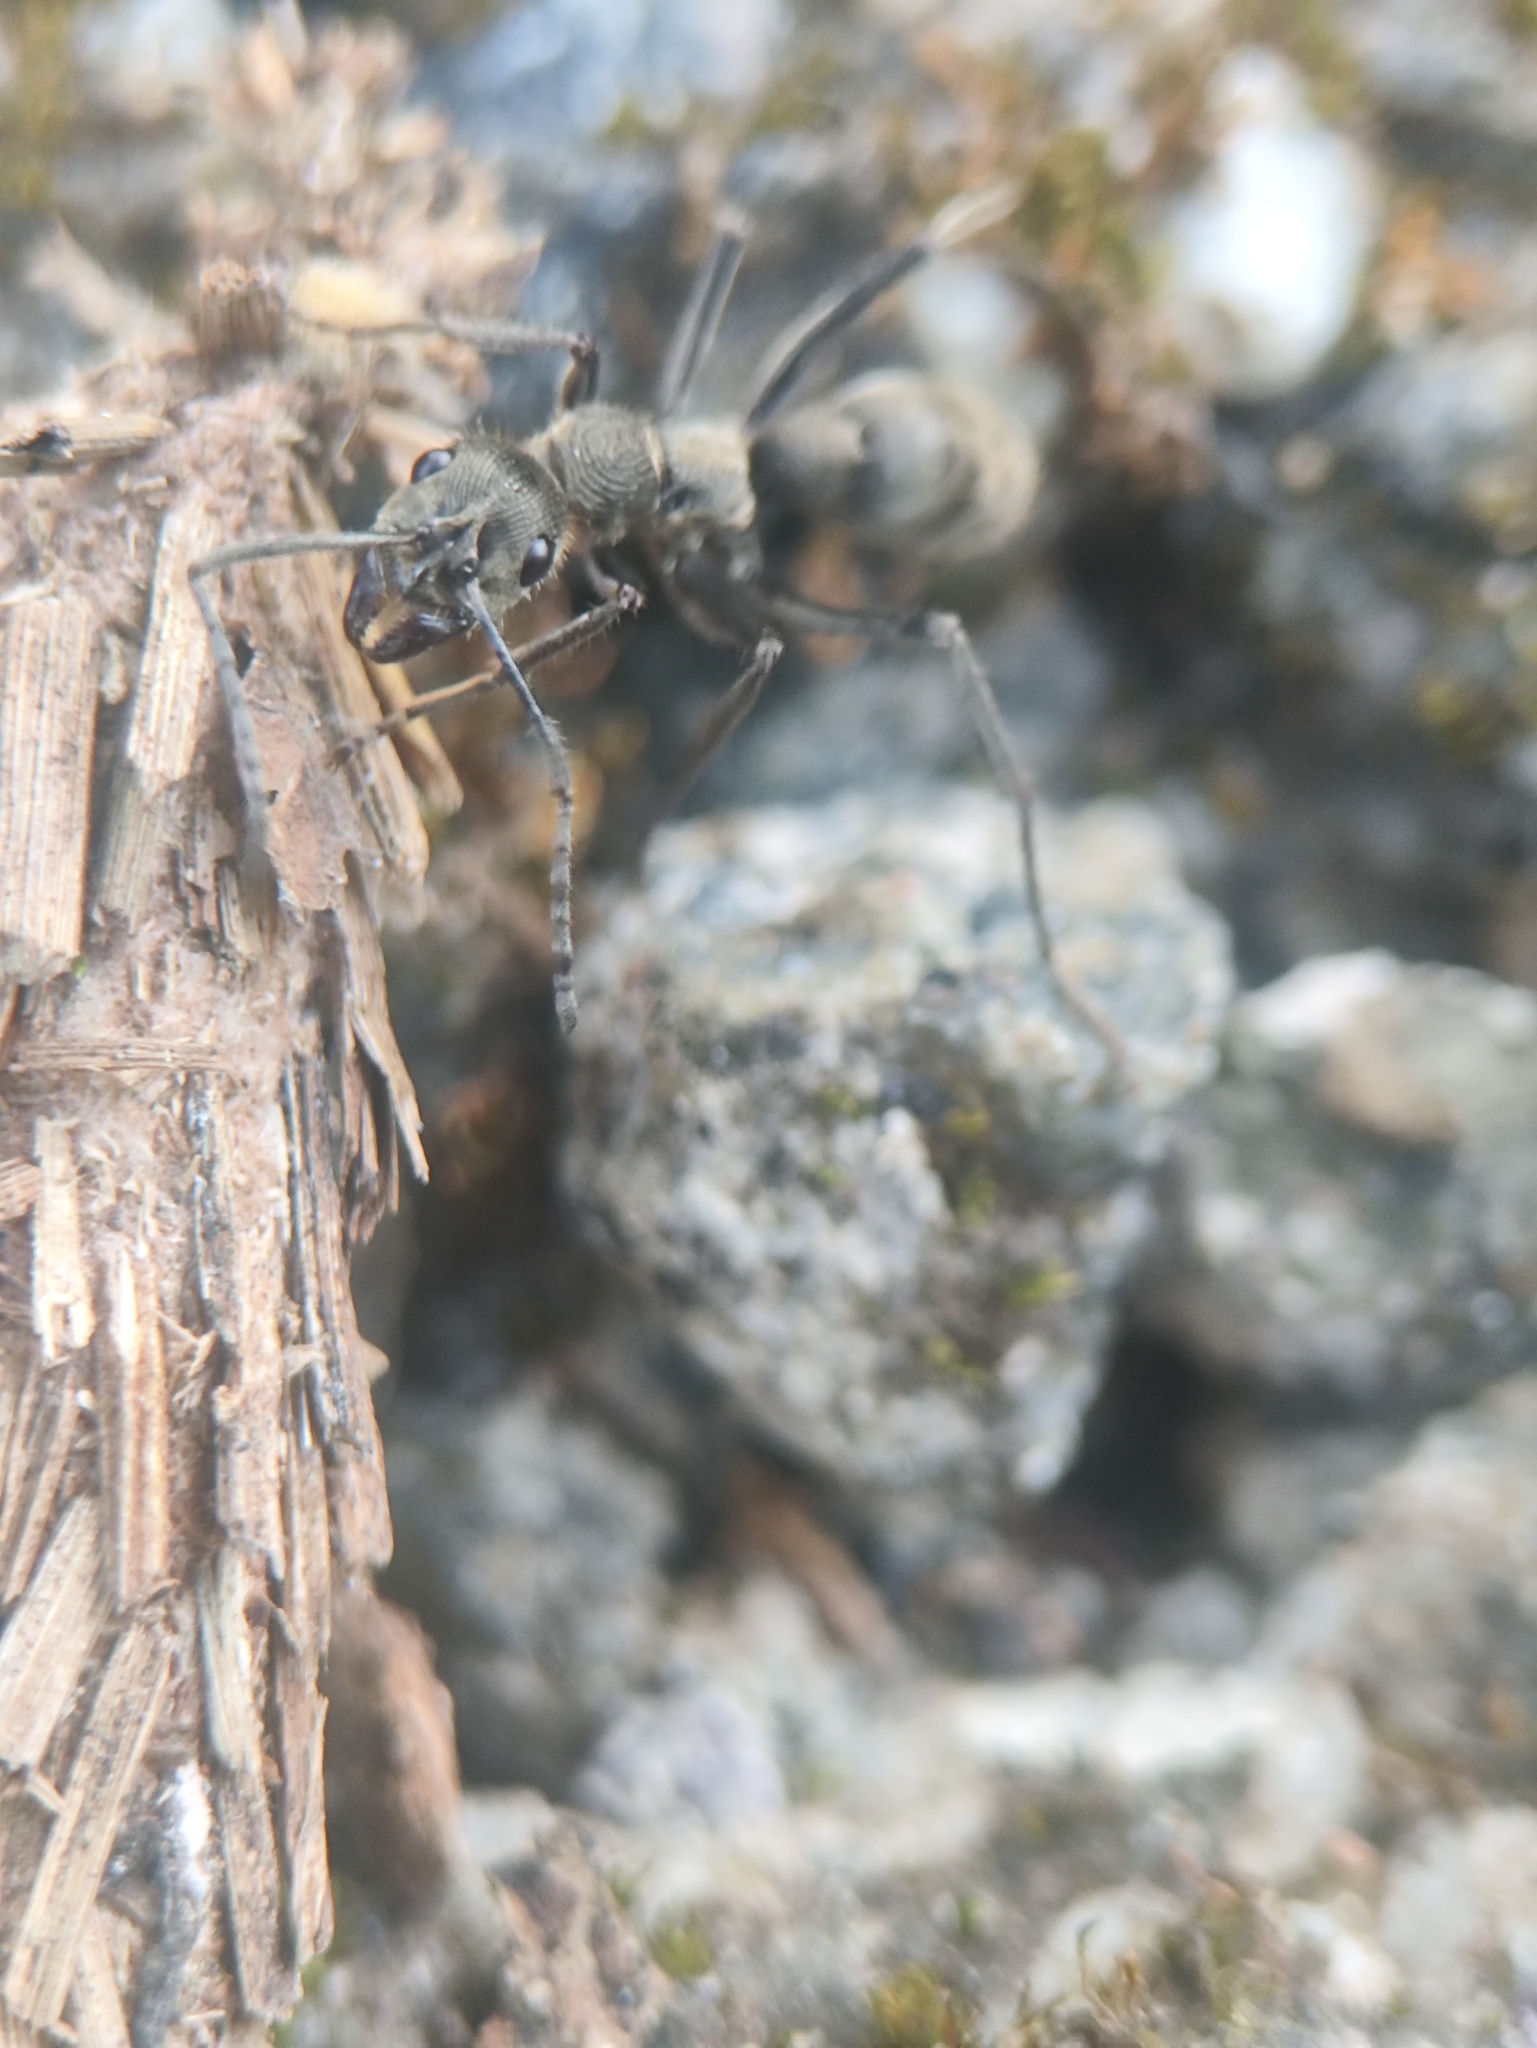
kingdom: Animalia
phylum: Arthropoda
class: Insecta
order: Hymenoptera
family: Formicidae
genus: Diacamma
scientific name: Diacamma rugosum
